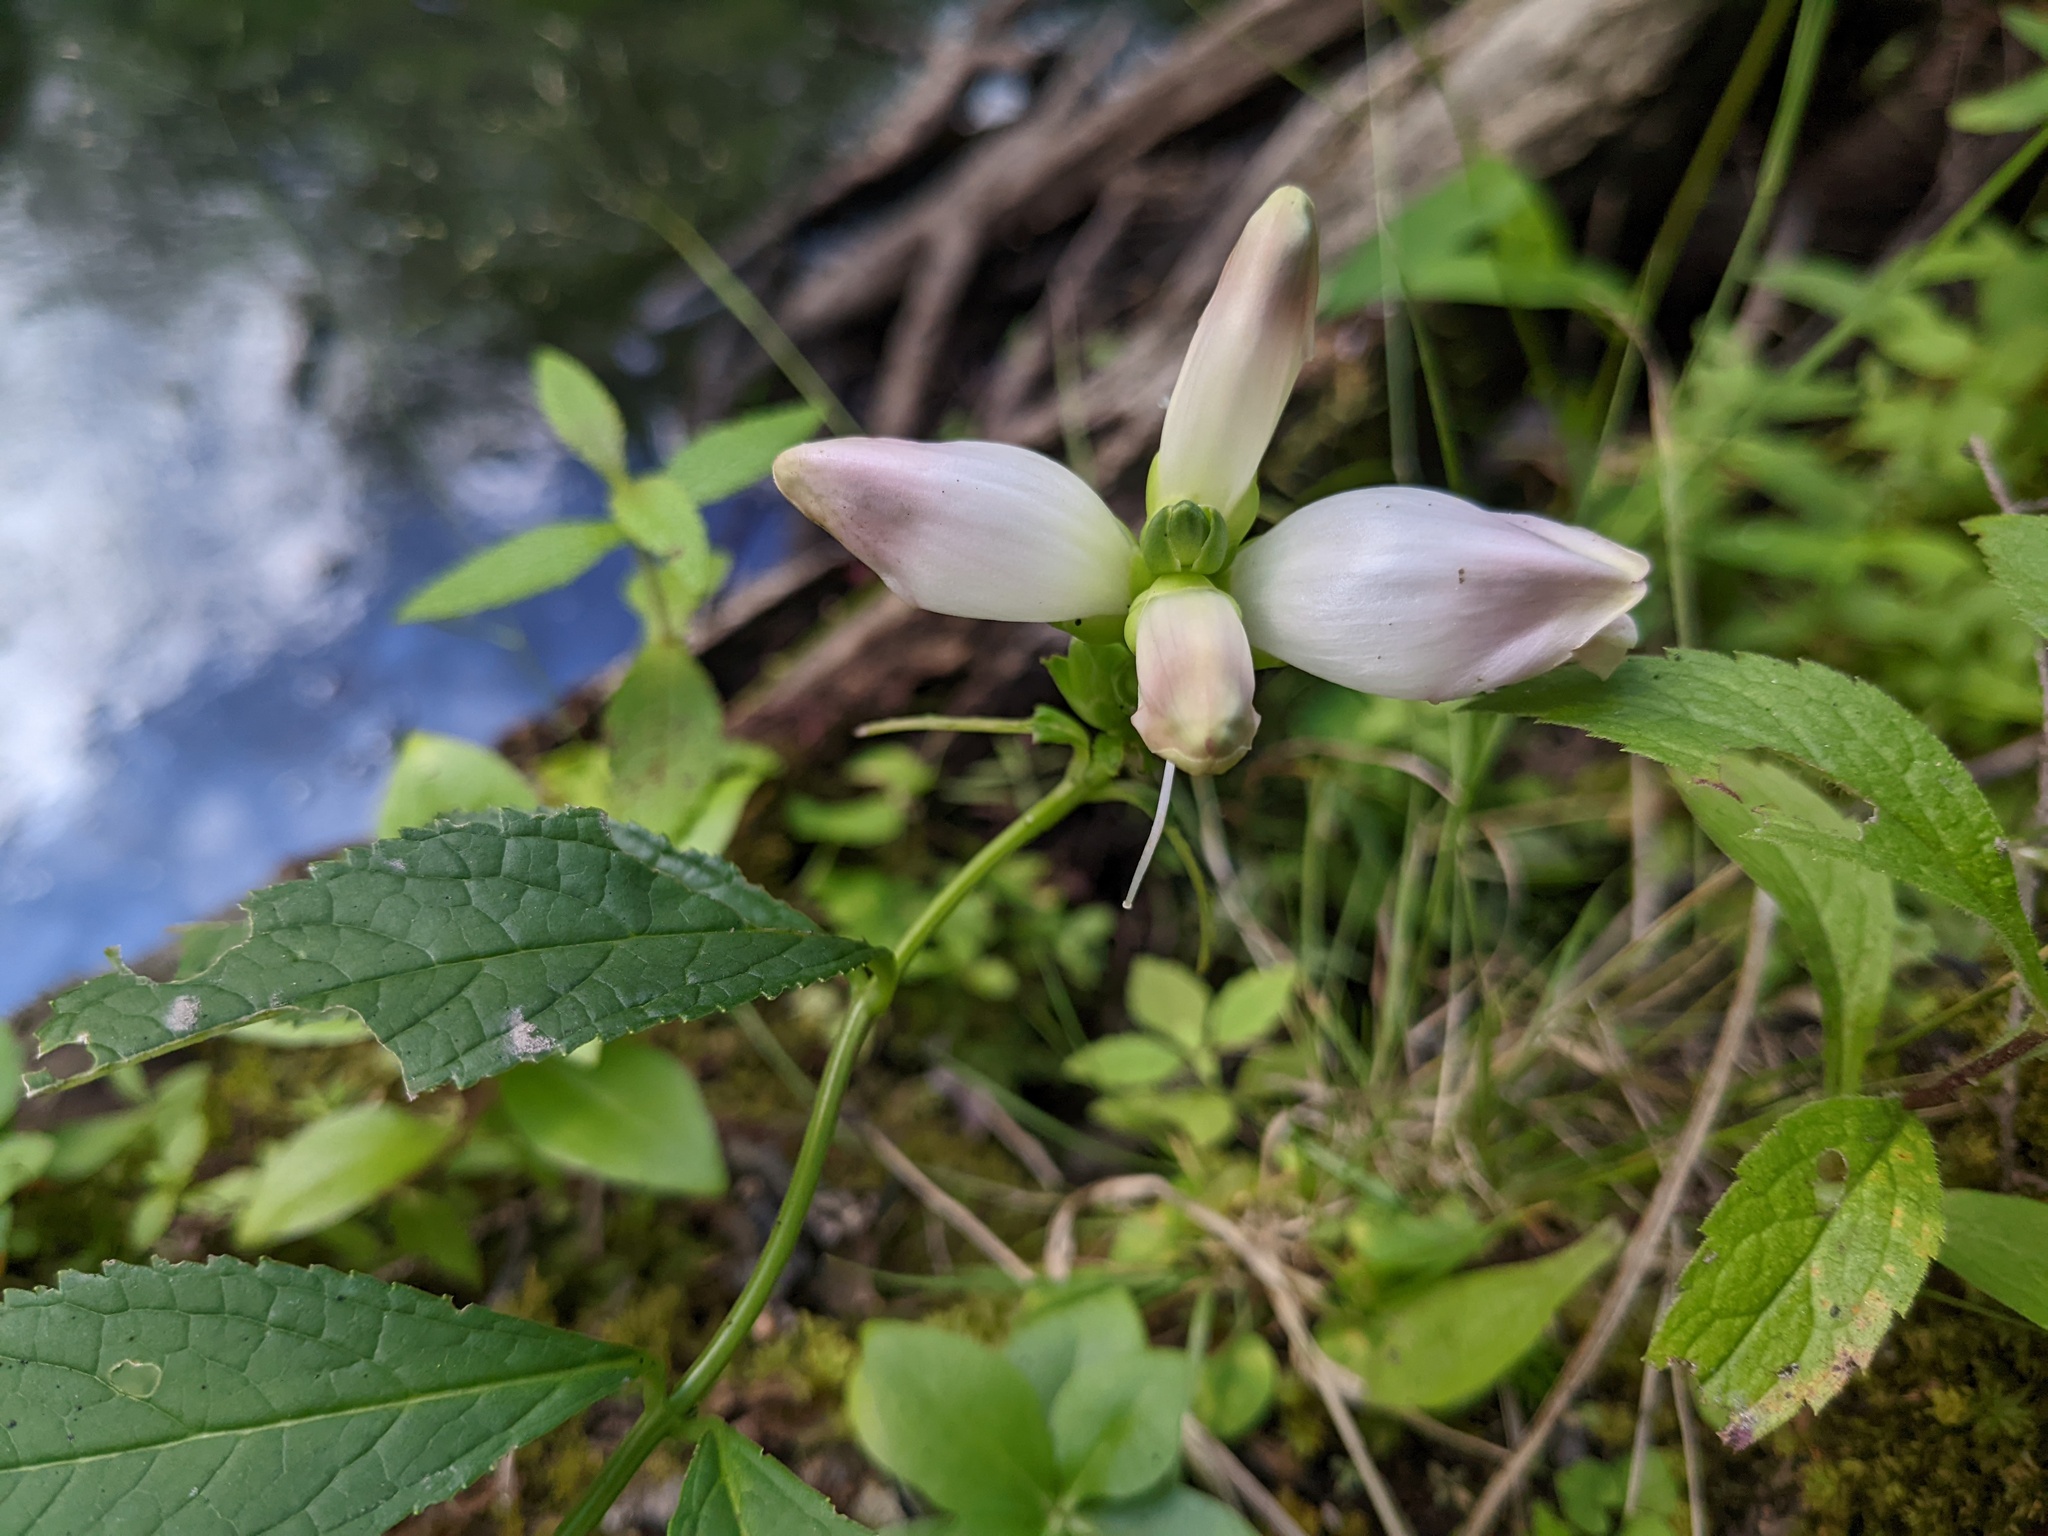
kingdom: Plantae
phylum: Tracheophyta
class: Magnoliopsida
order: Lamiales
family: Plantaginaceae
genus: Chelone
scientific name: Chelone glabra
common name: Snakehead
